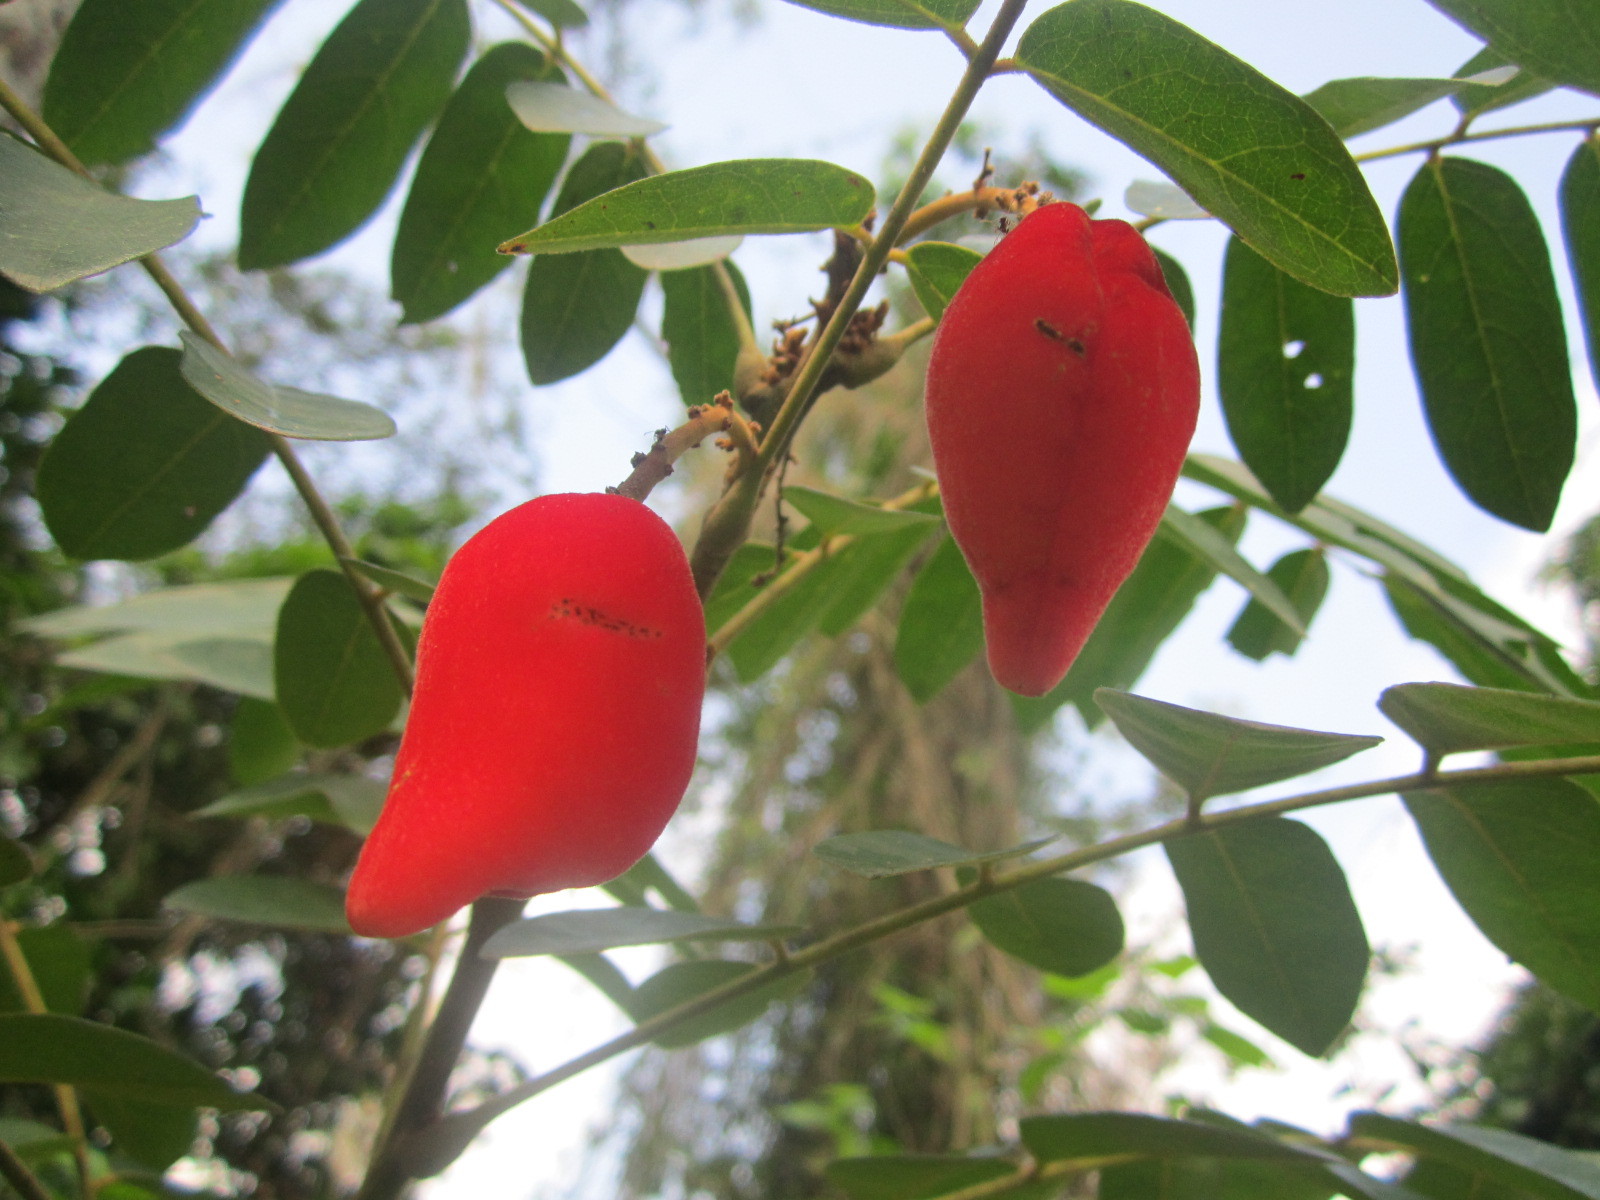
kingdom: Plantae
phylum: Tracheophyta
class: Magnoliopsida
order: Oxalidales
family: Connaraceae
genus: Cnestis
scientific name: Cnestis ferruginea
